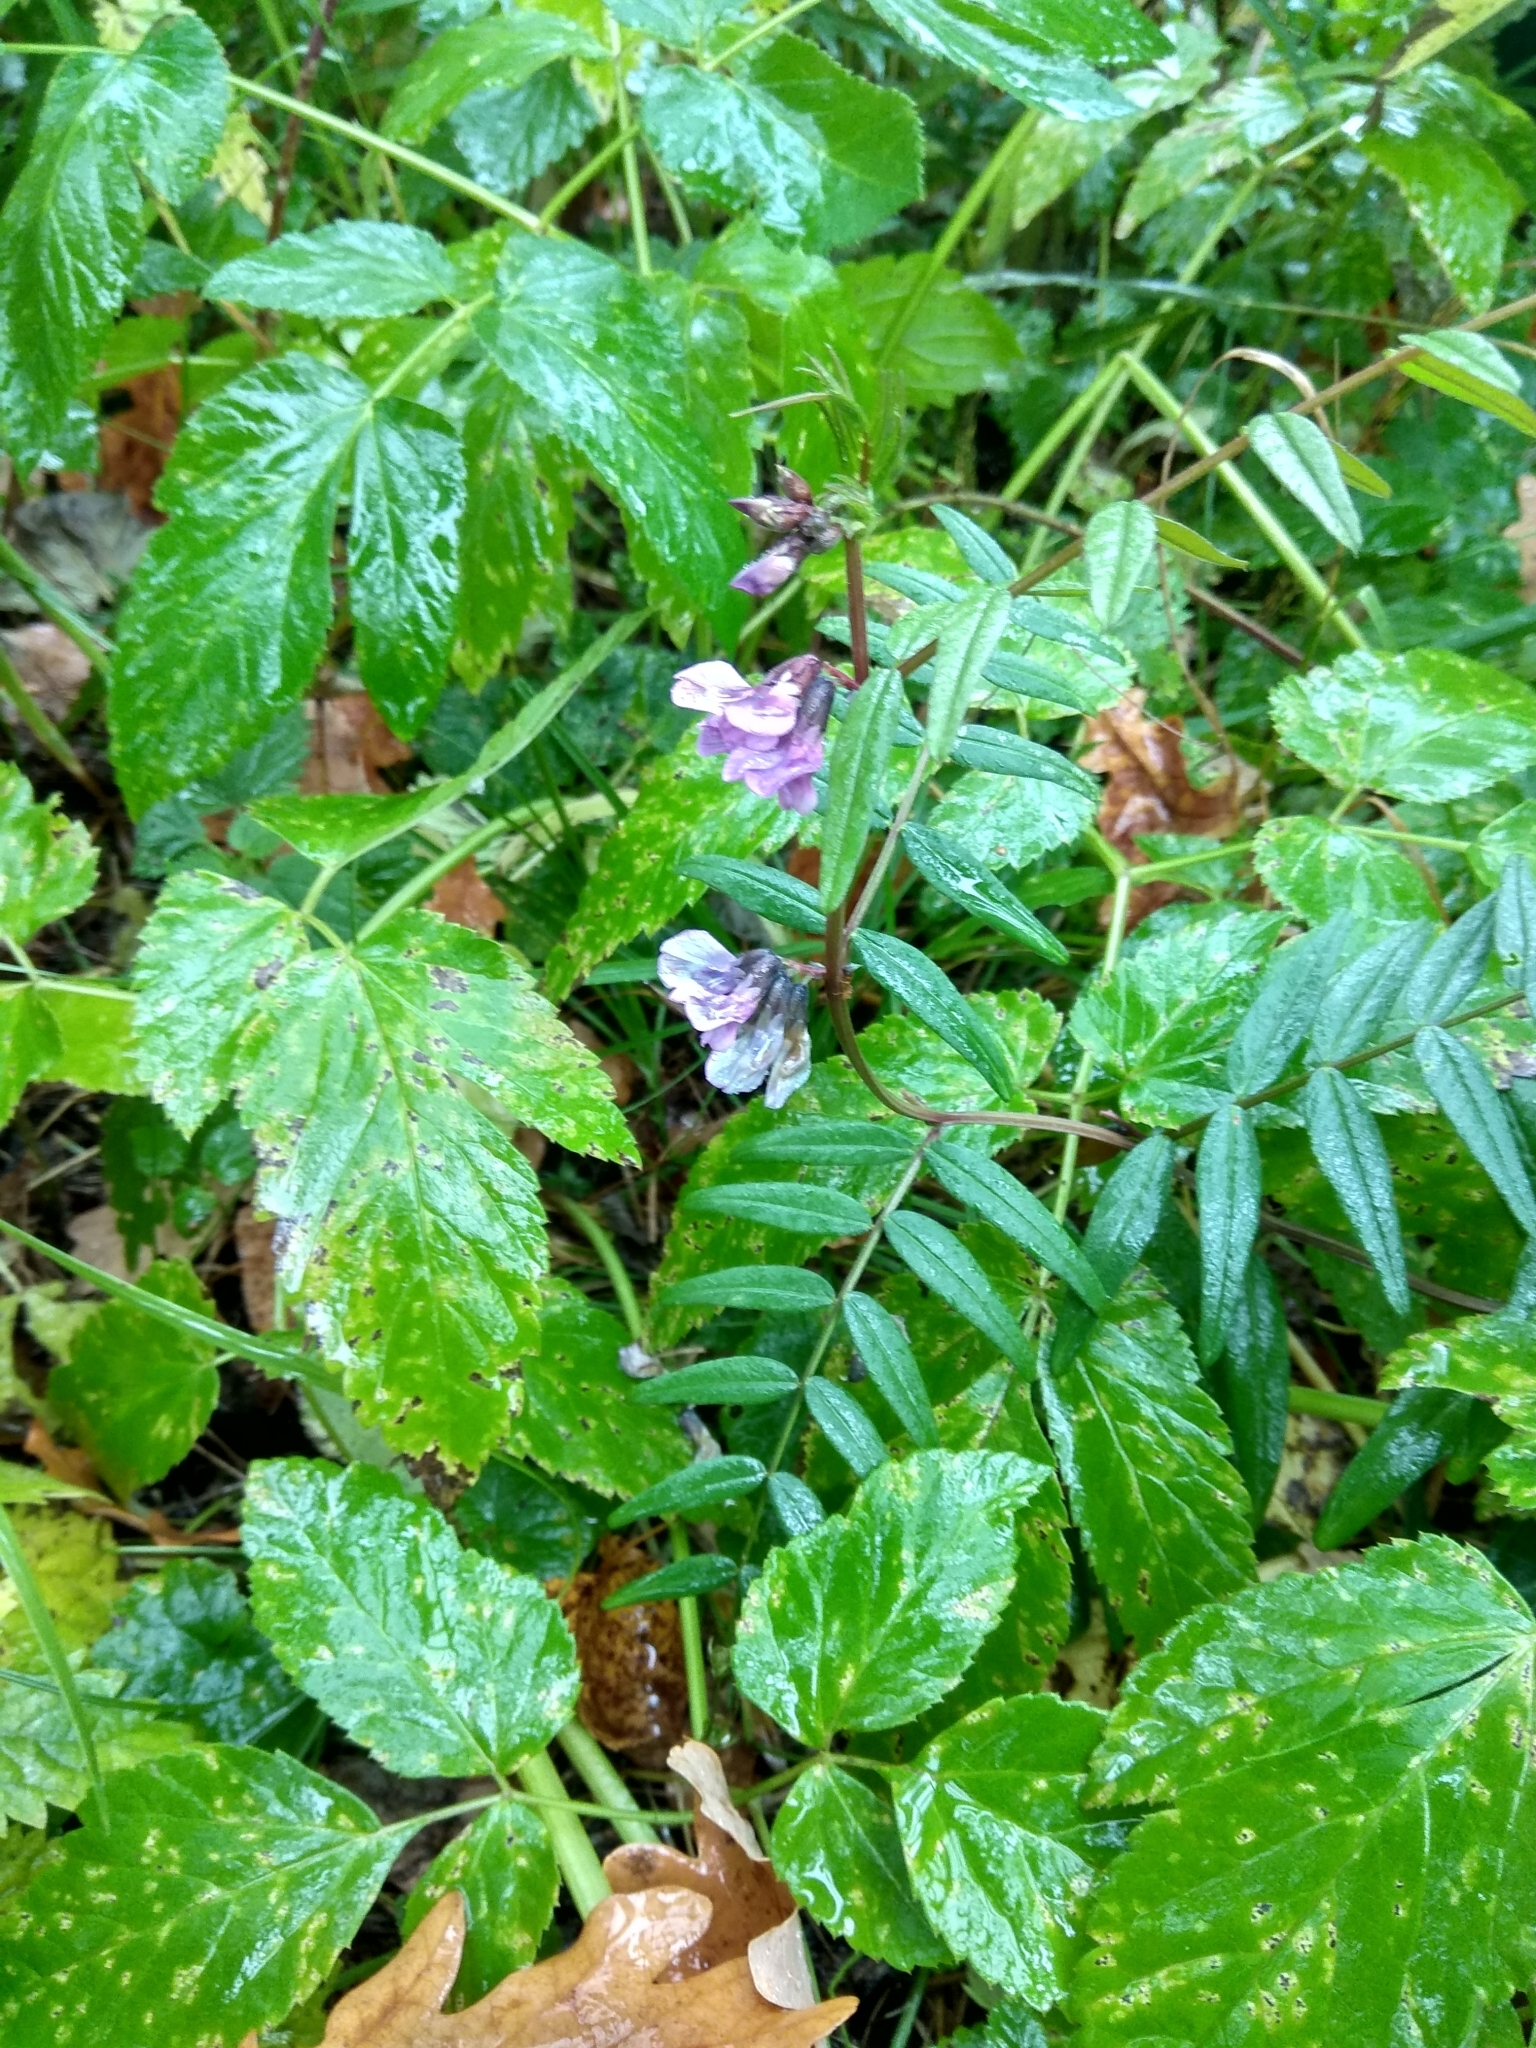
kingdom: Plantae
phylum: Tracheophyta
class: Magnoliopsida
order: Fabales
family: Fabaceae
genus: Vicia
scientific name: Vicia sepium
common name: Bush vetch
